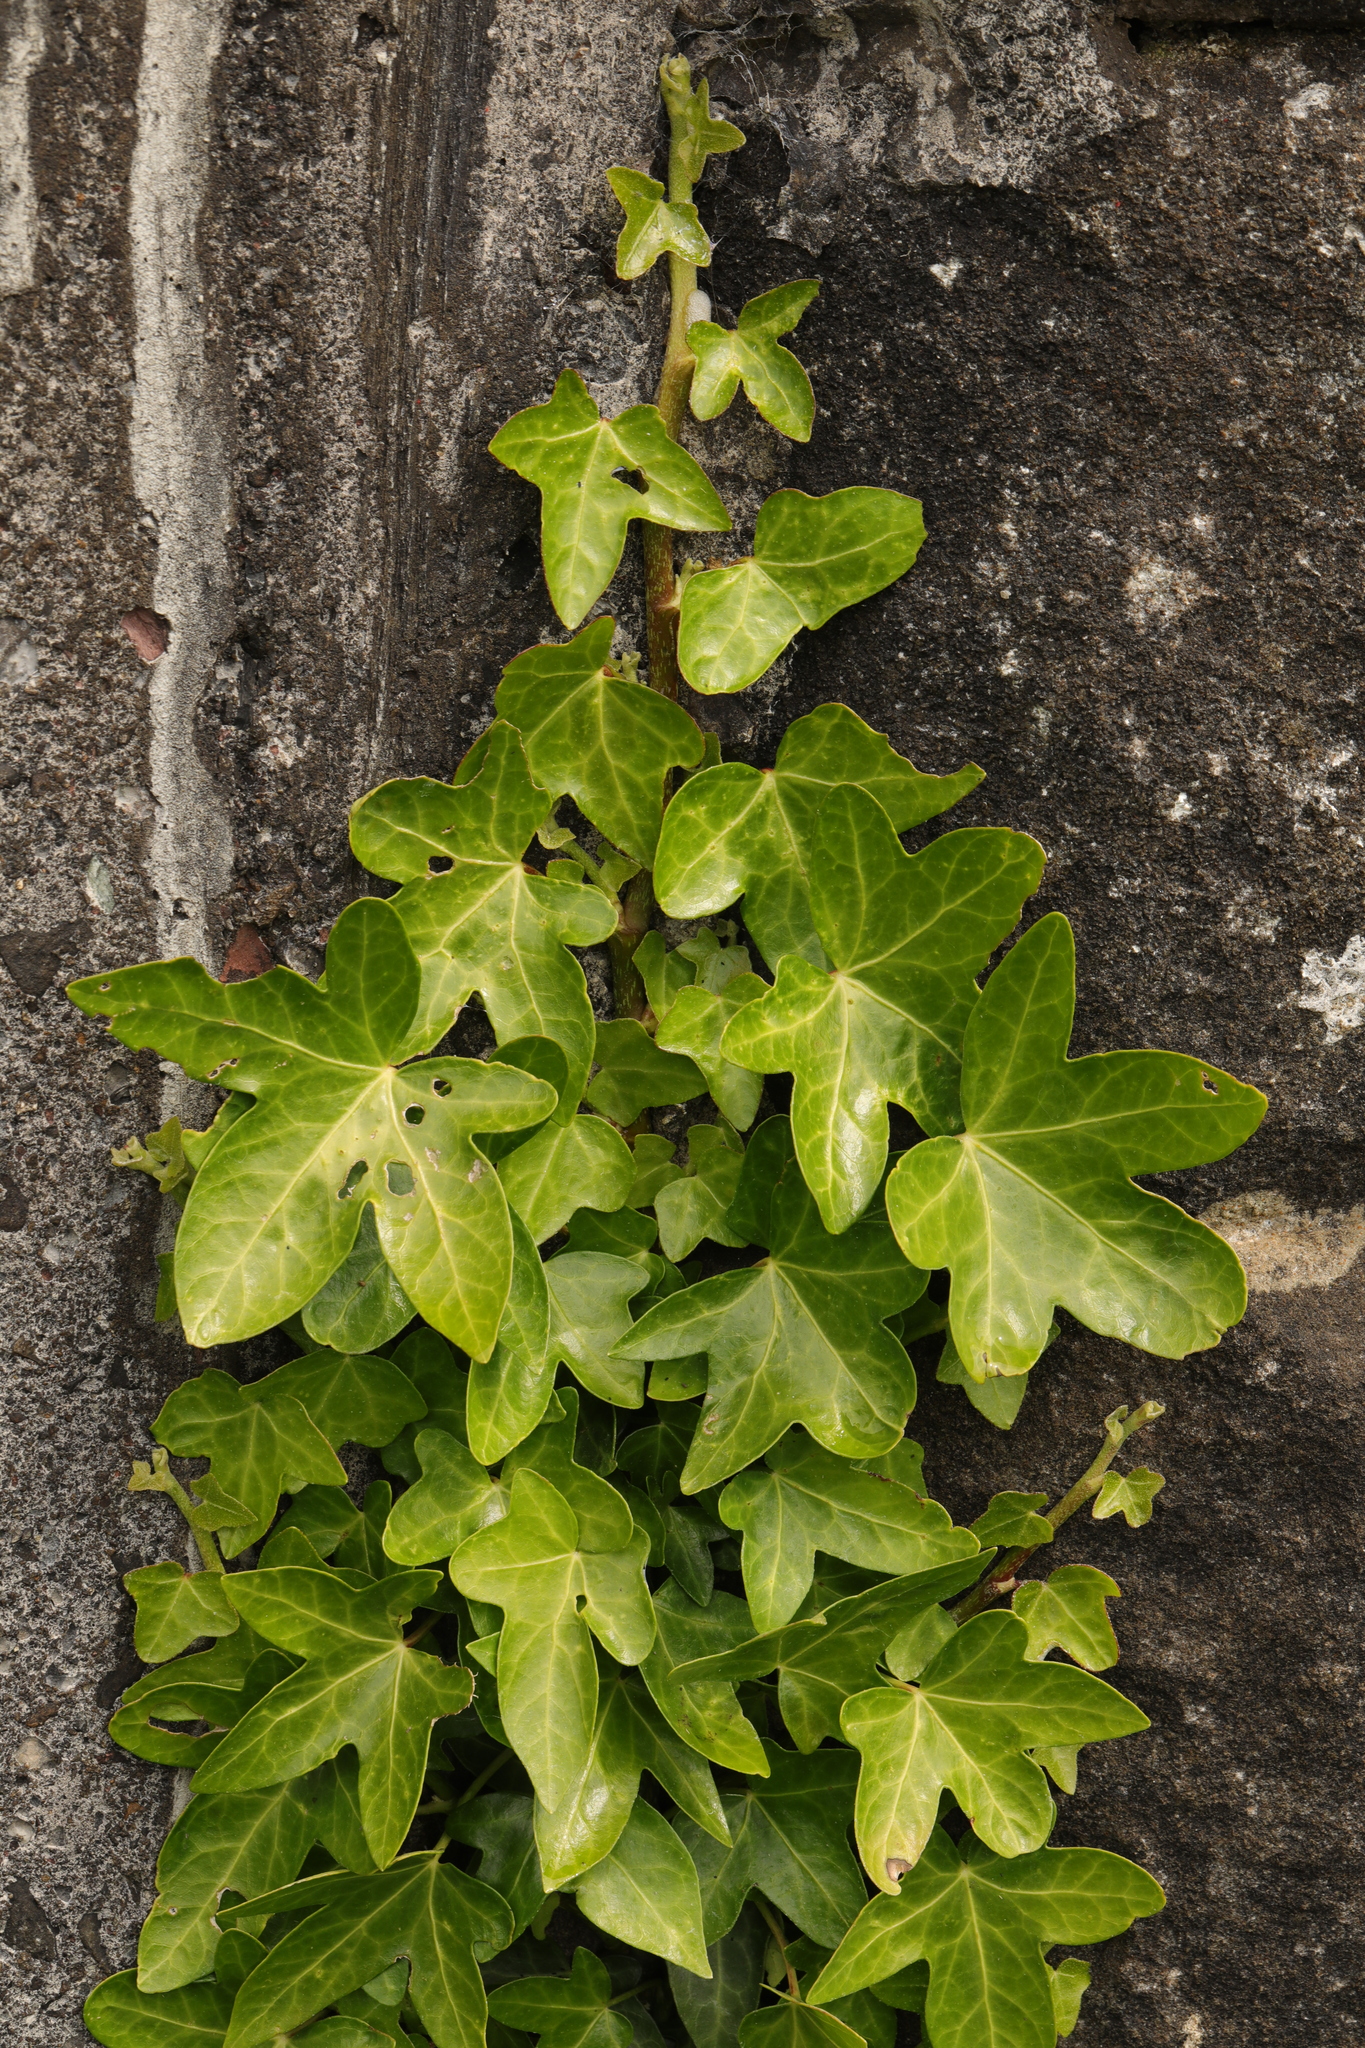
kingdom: Plantae
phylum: Tracheophyta
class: Magnoliopsida
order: Apiales
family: Araliaceae
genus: Hedera
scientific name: Hedera helix
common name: Ivy
